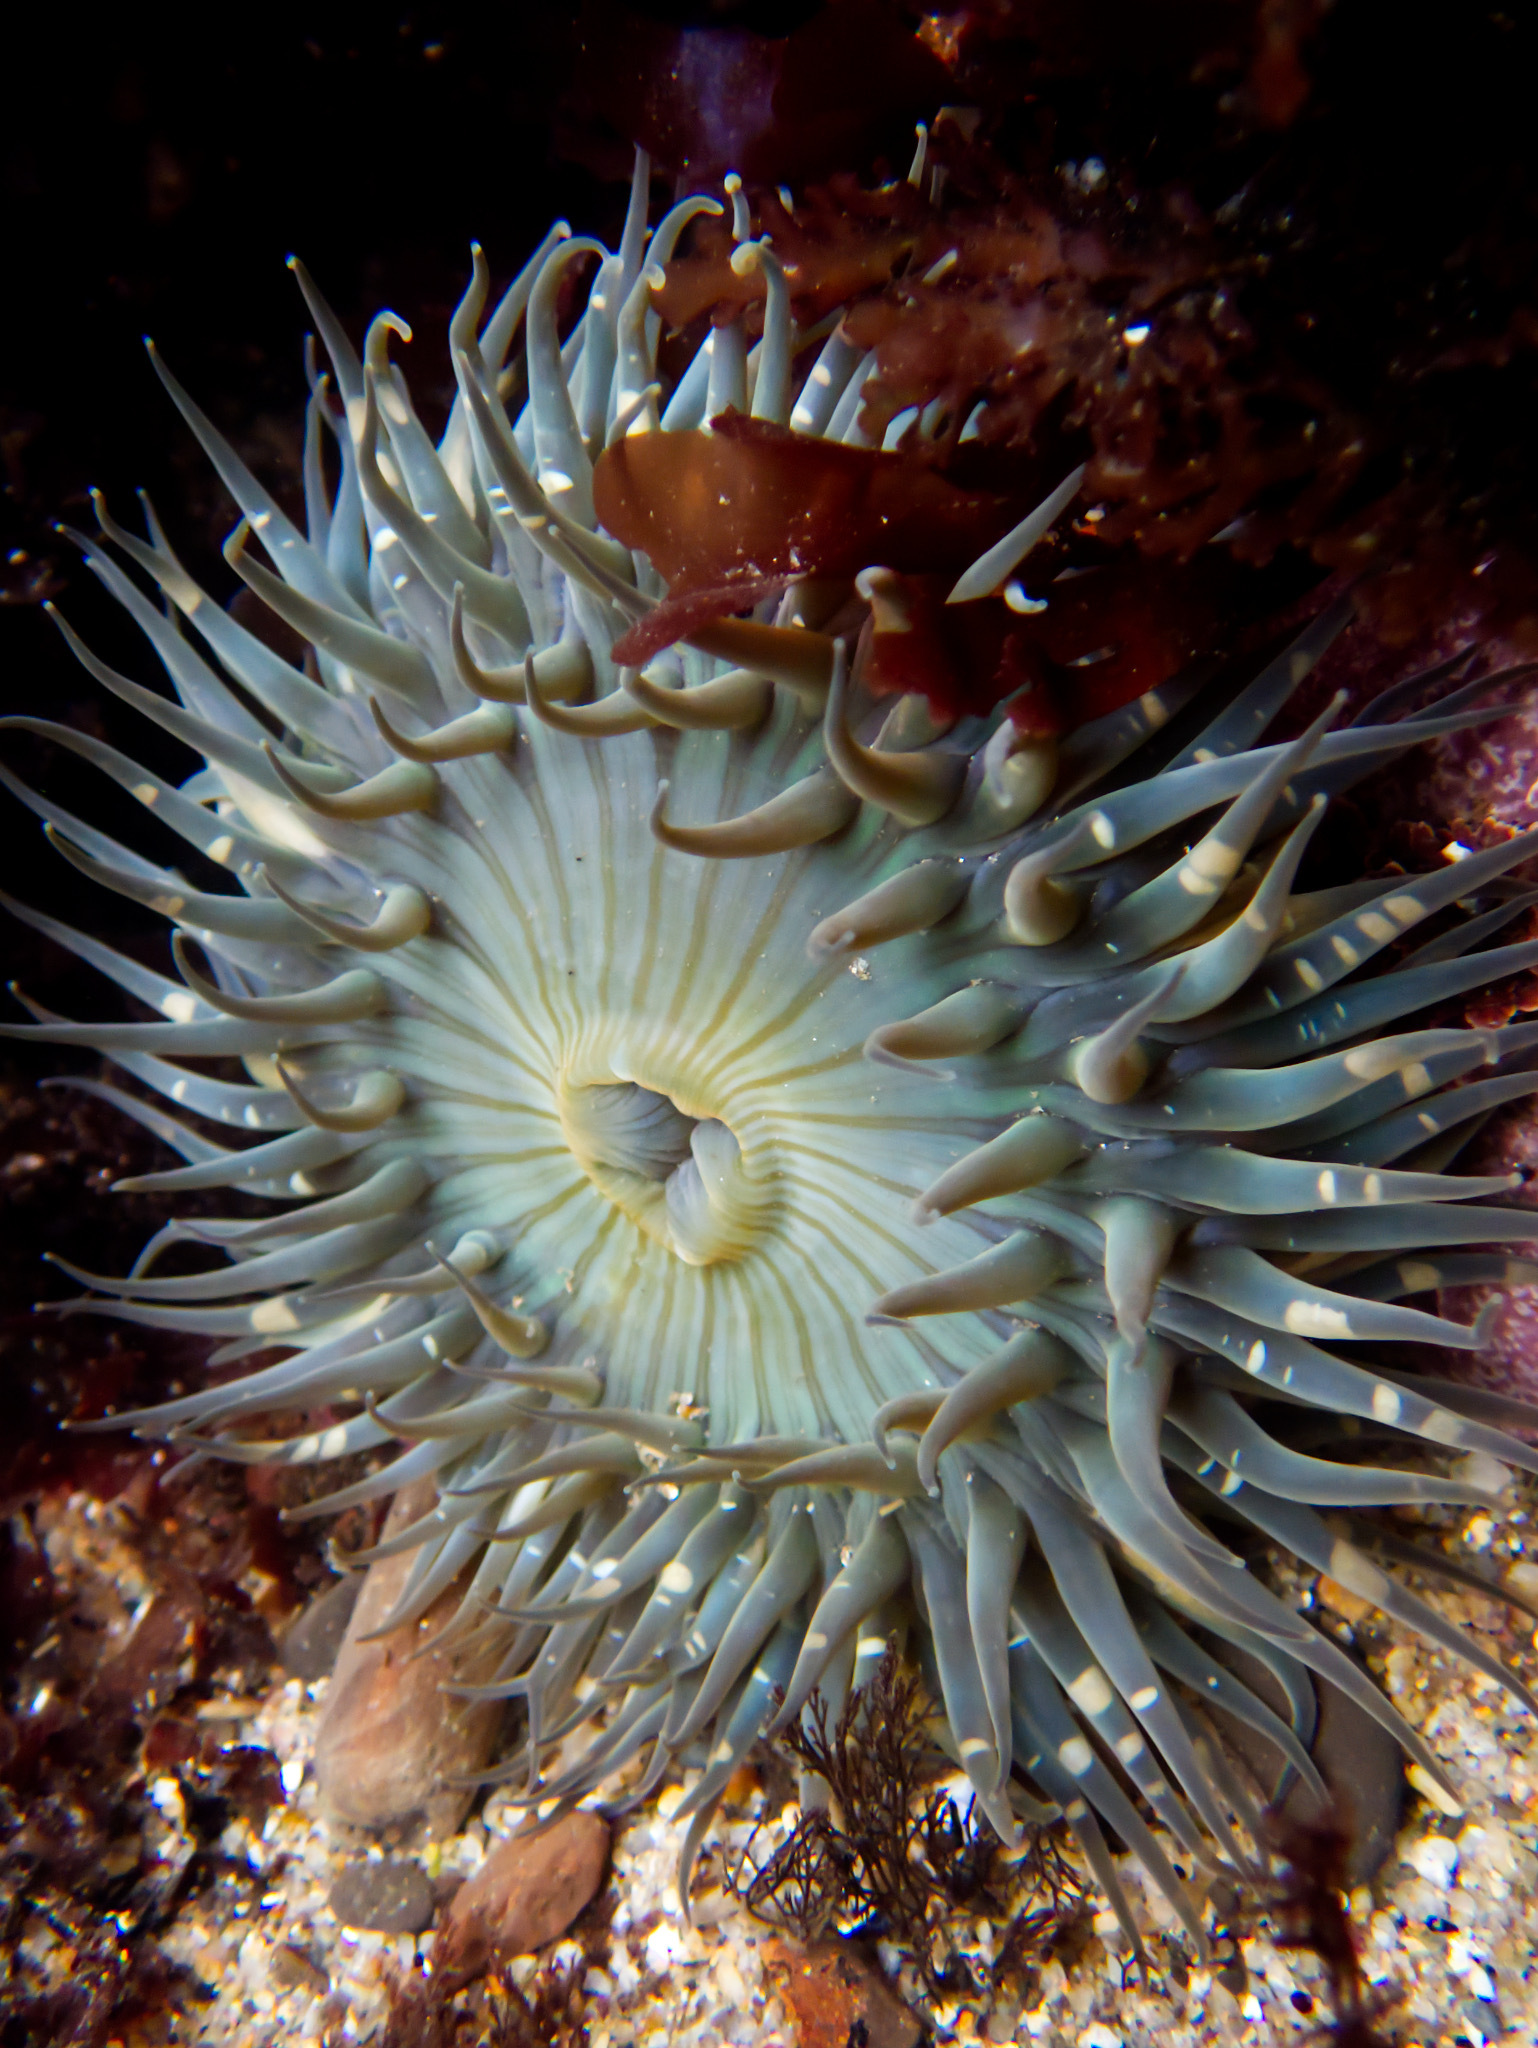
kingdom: Animalia
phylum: Cnidaria
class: Anthozoa
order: Actiniaria
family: Actiniidae
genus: Anthopleura
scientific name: Anthopleura sola
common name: Sun anemone
